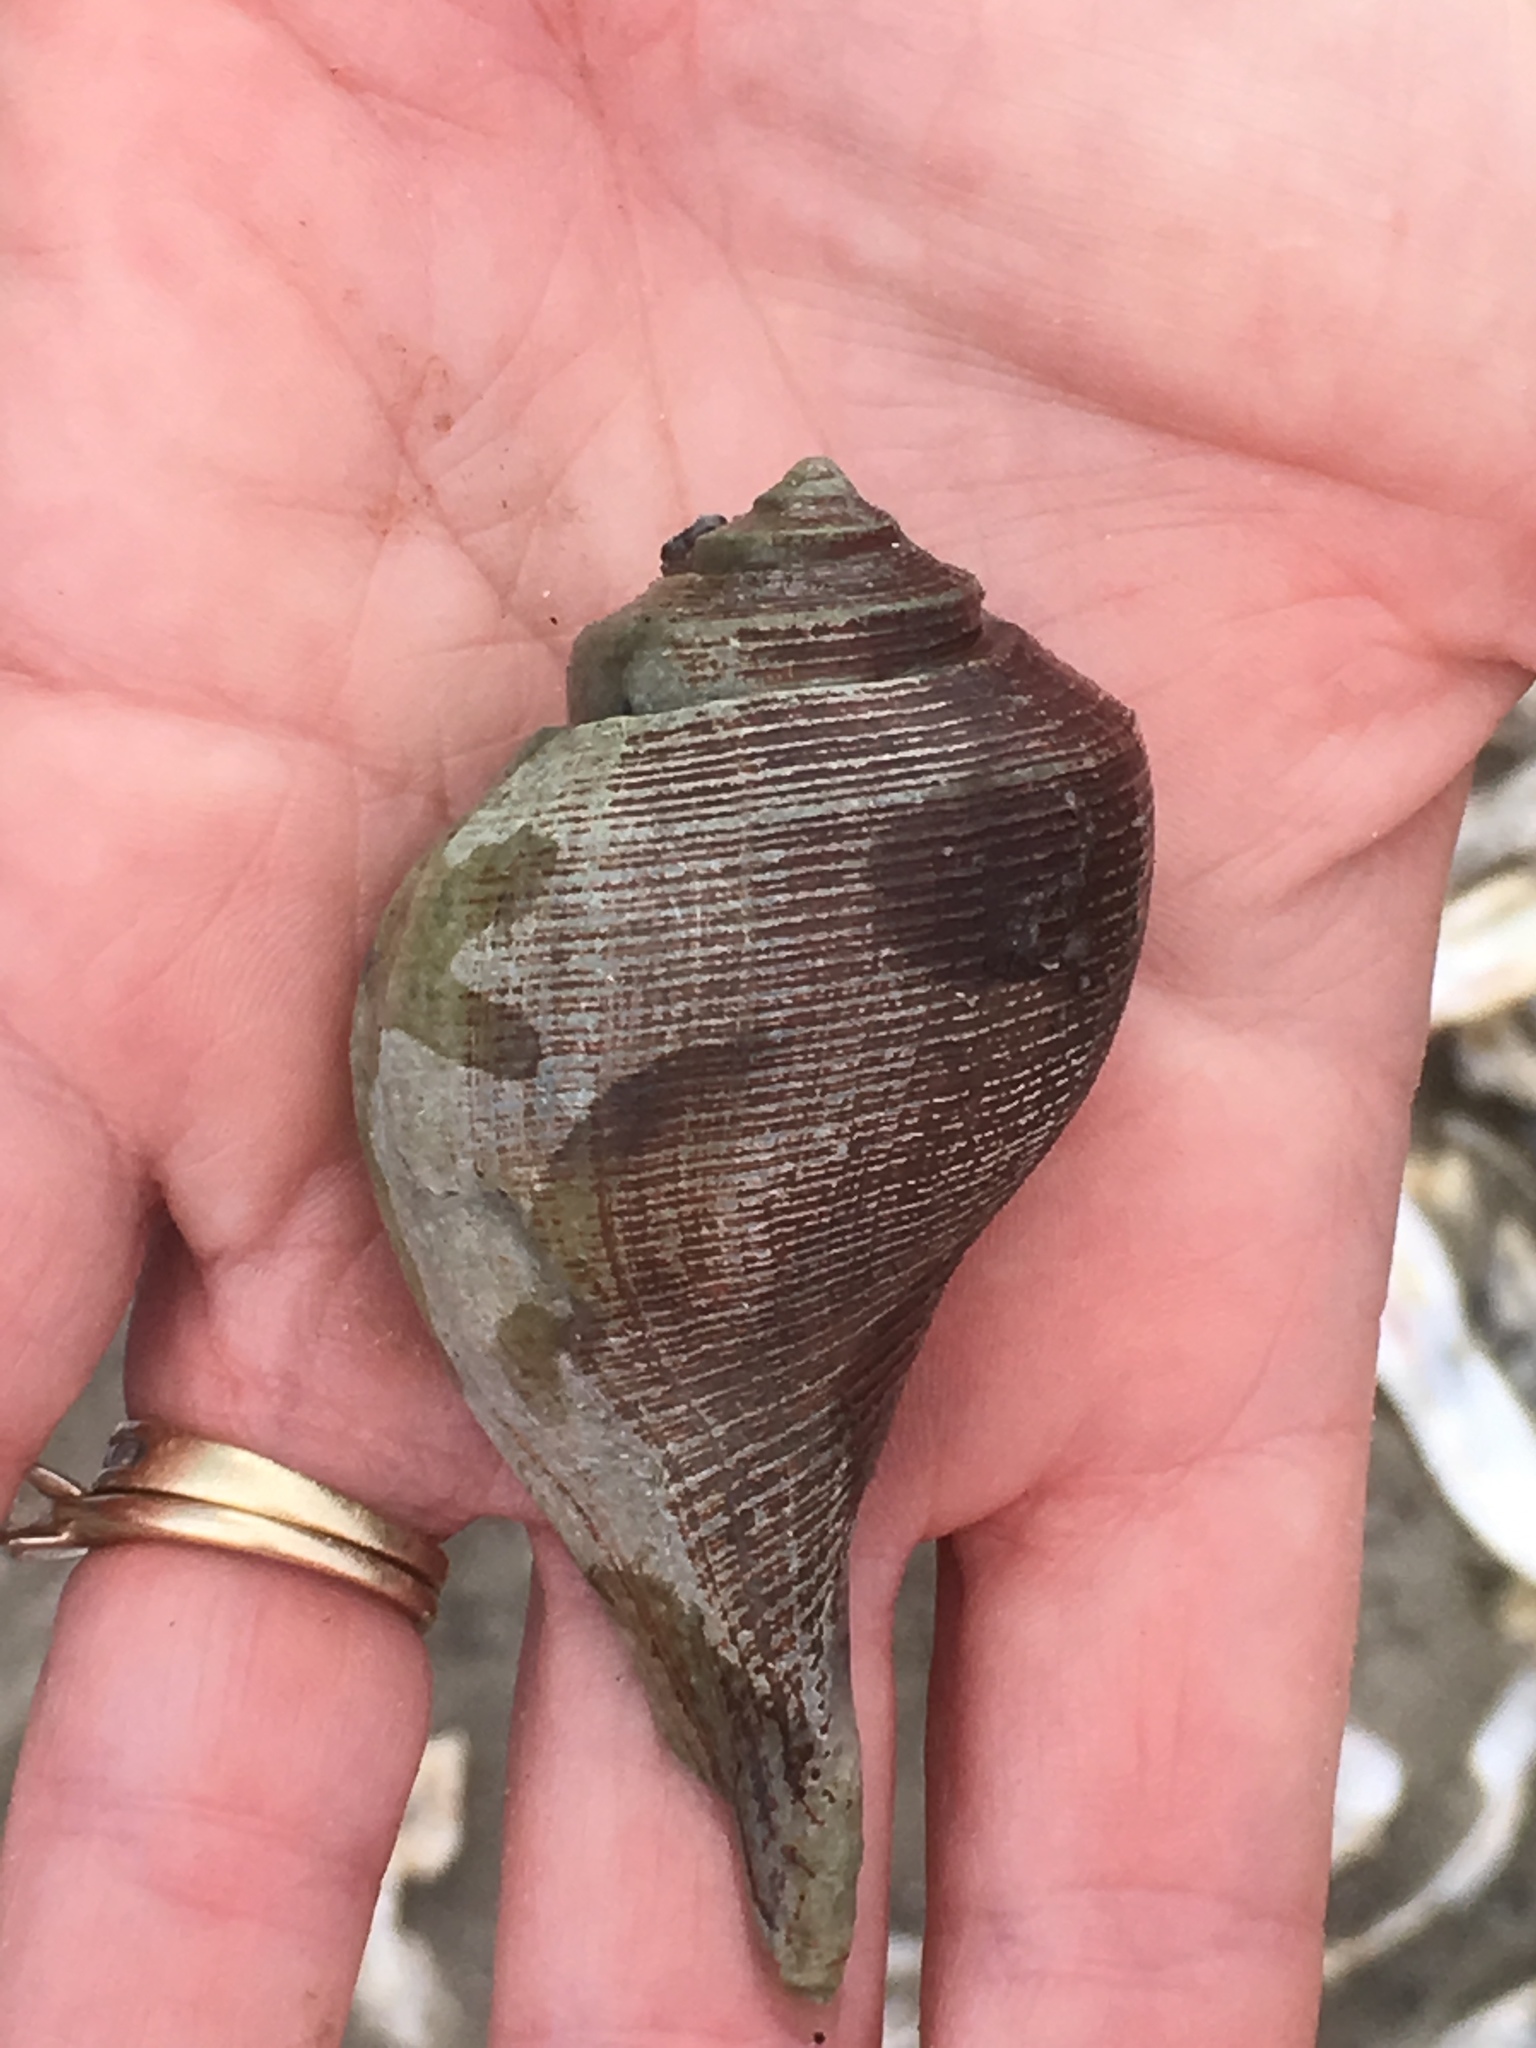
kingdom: Animalia
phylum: Mollusca
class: Gastropoda
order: Neogastropoda
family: Busyconidae
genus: Fulguropsis
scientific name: Fulguropsis pyruloides
